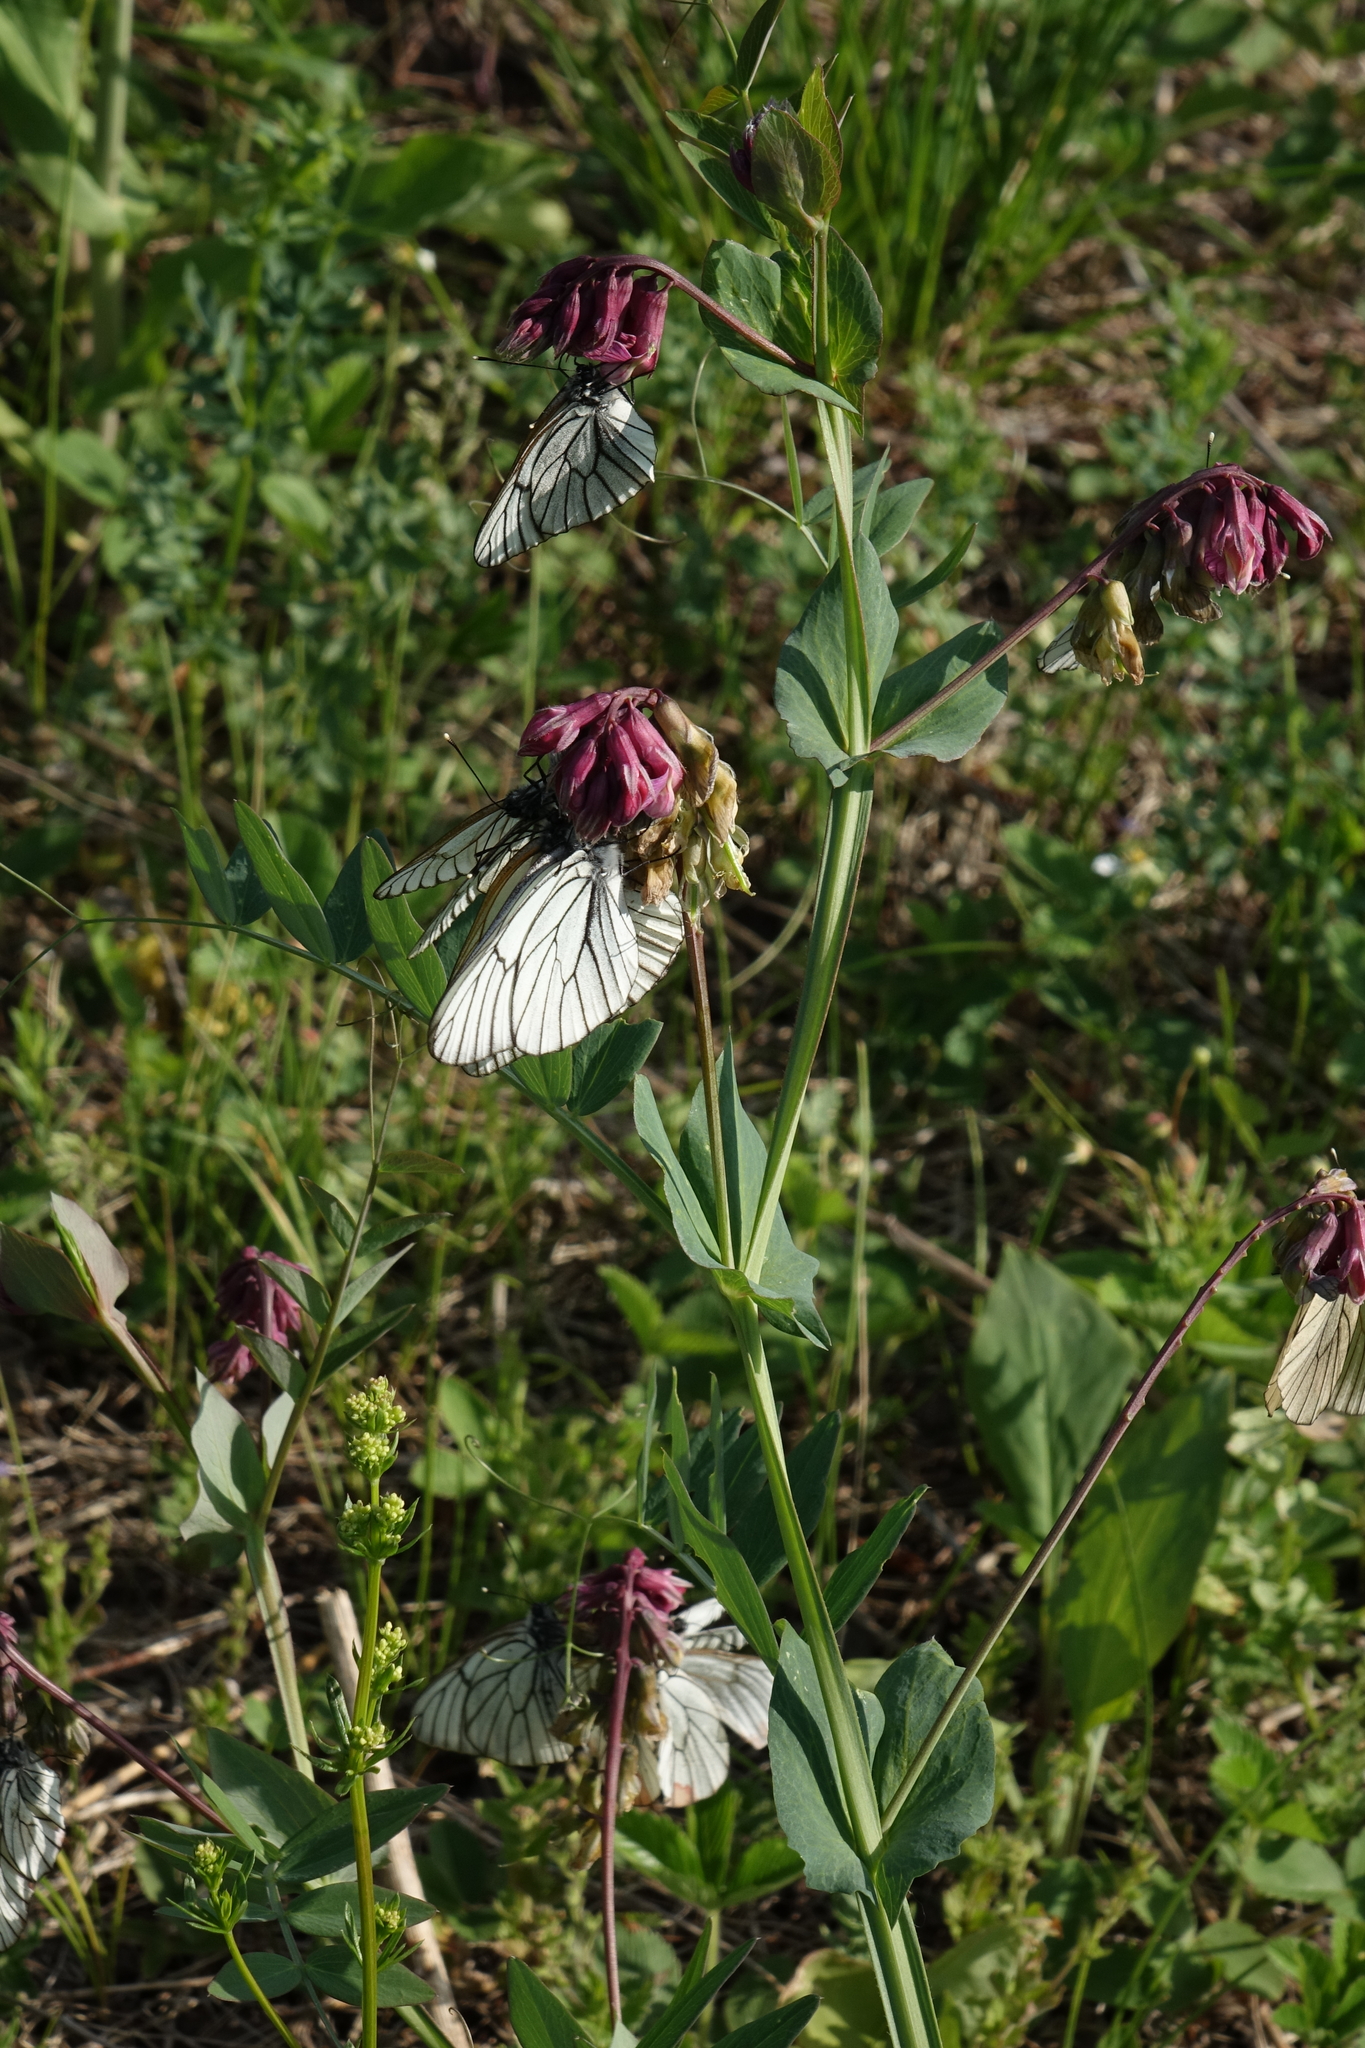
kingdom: Animalia
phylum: Arthropoda
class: Insecta
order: Lepidoptera
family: Pieridae
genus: Aporia
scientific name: Aporia crataegi
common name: Black-veined white
